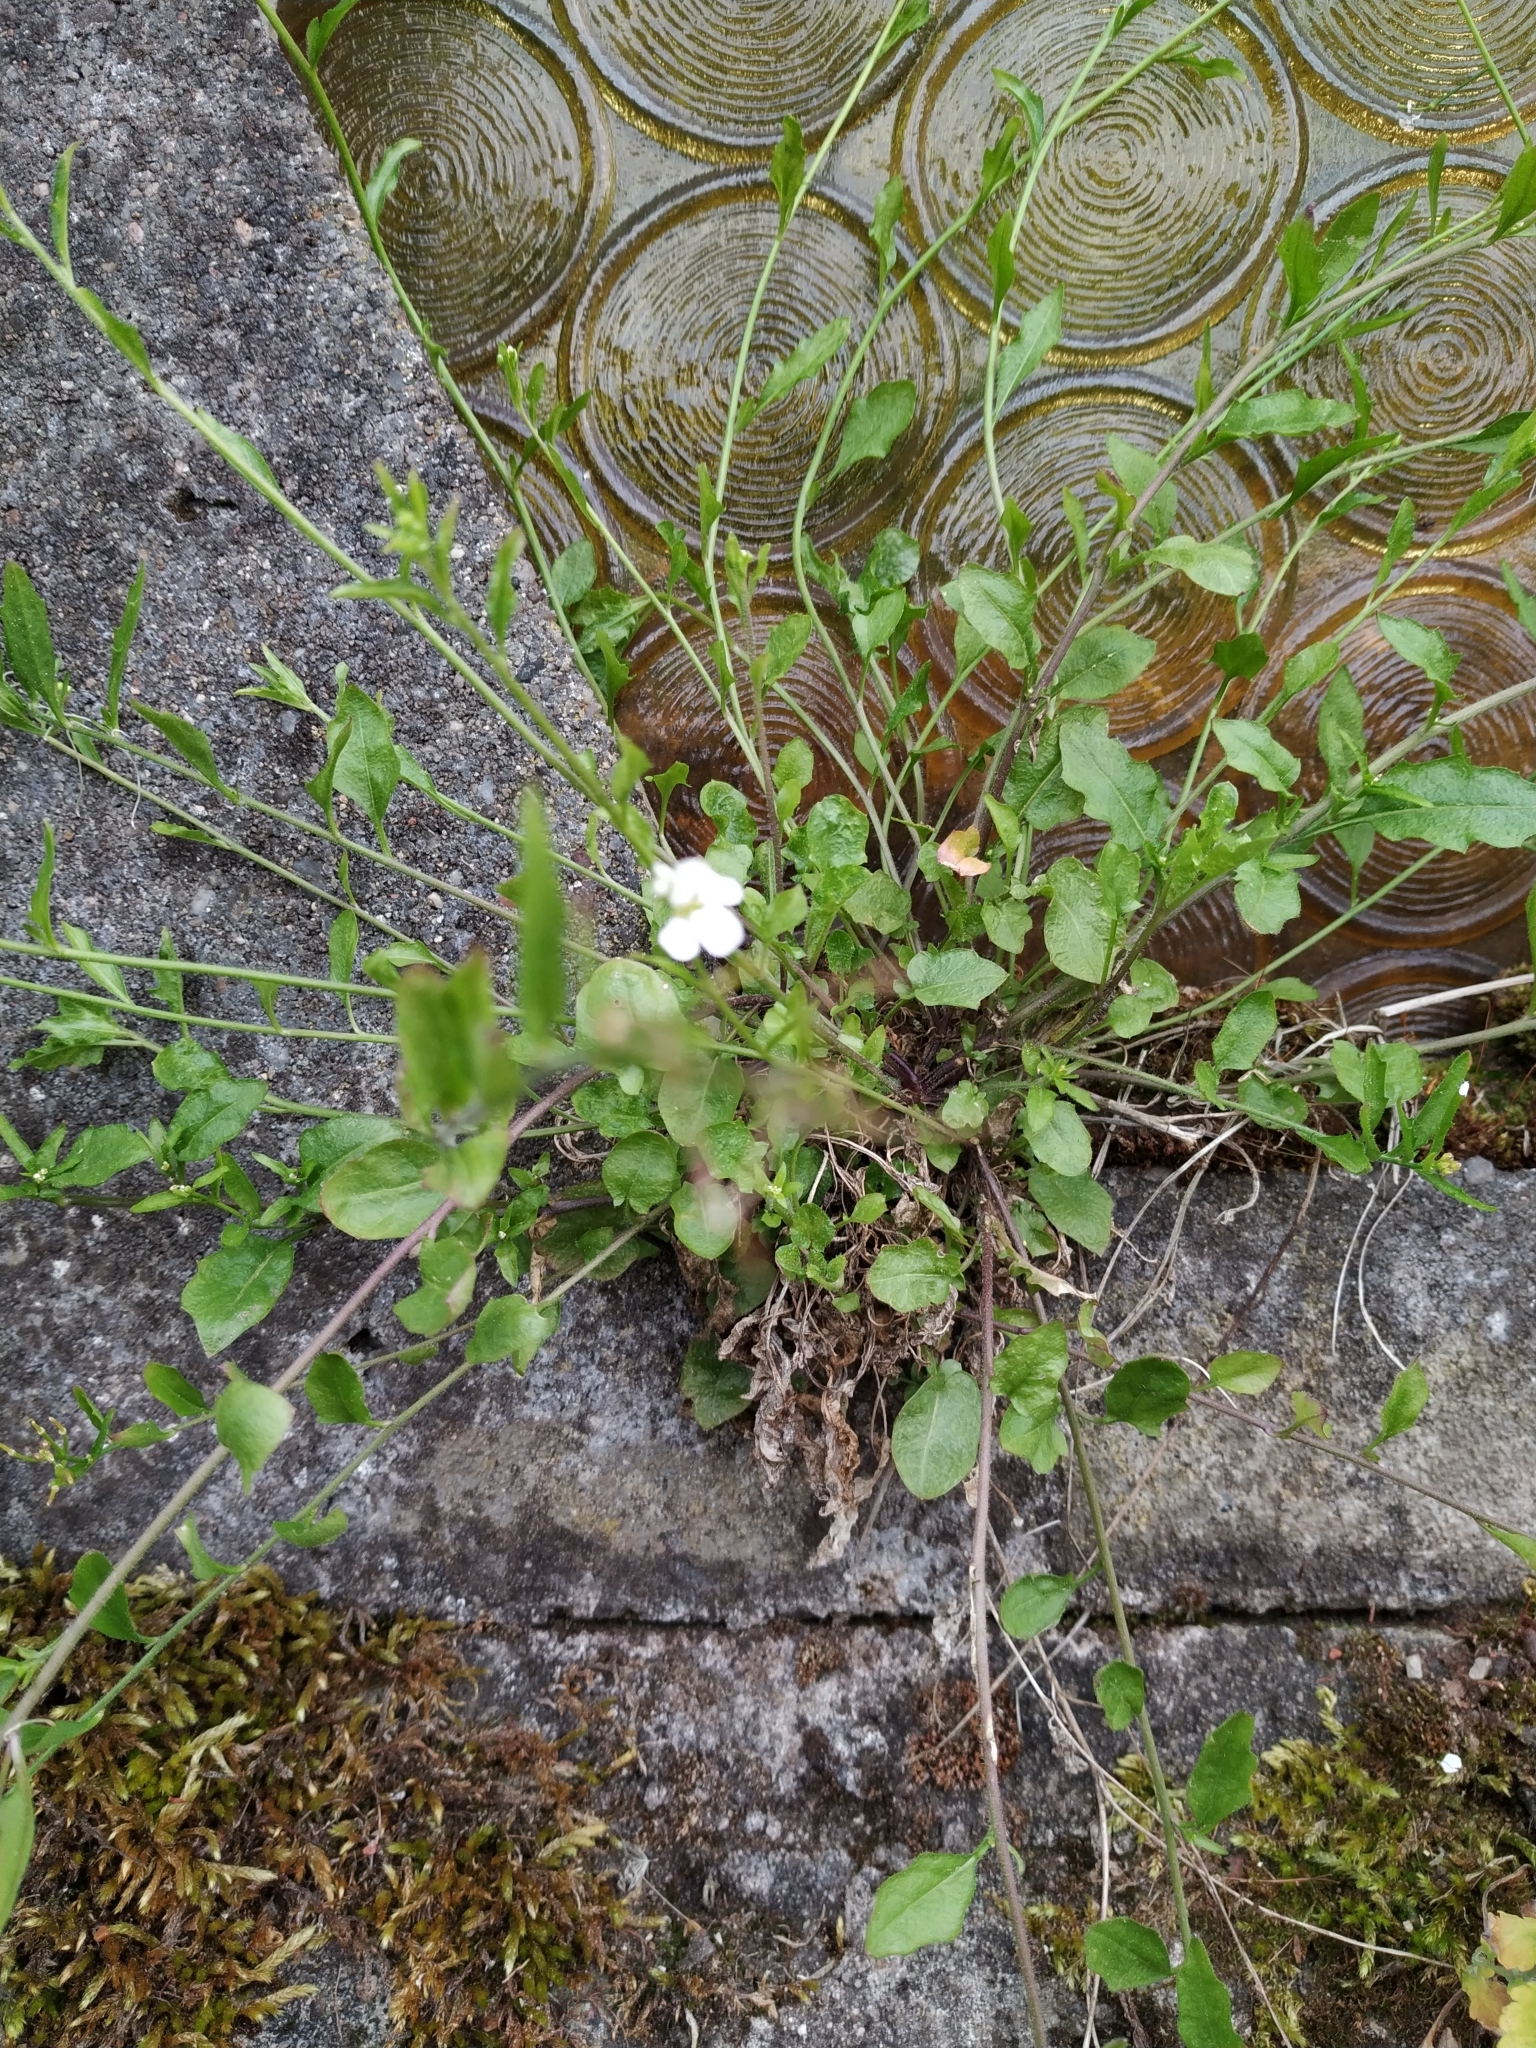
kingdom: Plantae
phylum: Tracheophyta
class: Magnoliopsida
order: Brassicales
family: Brassicaceae
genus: Arabidopsis
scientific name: Arabidopsis halleri
